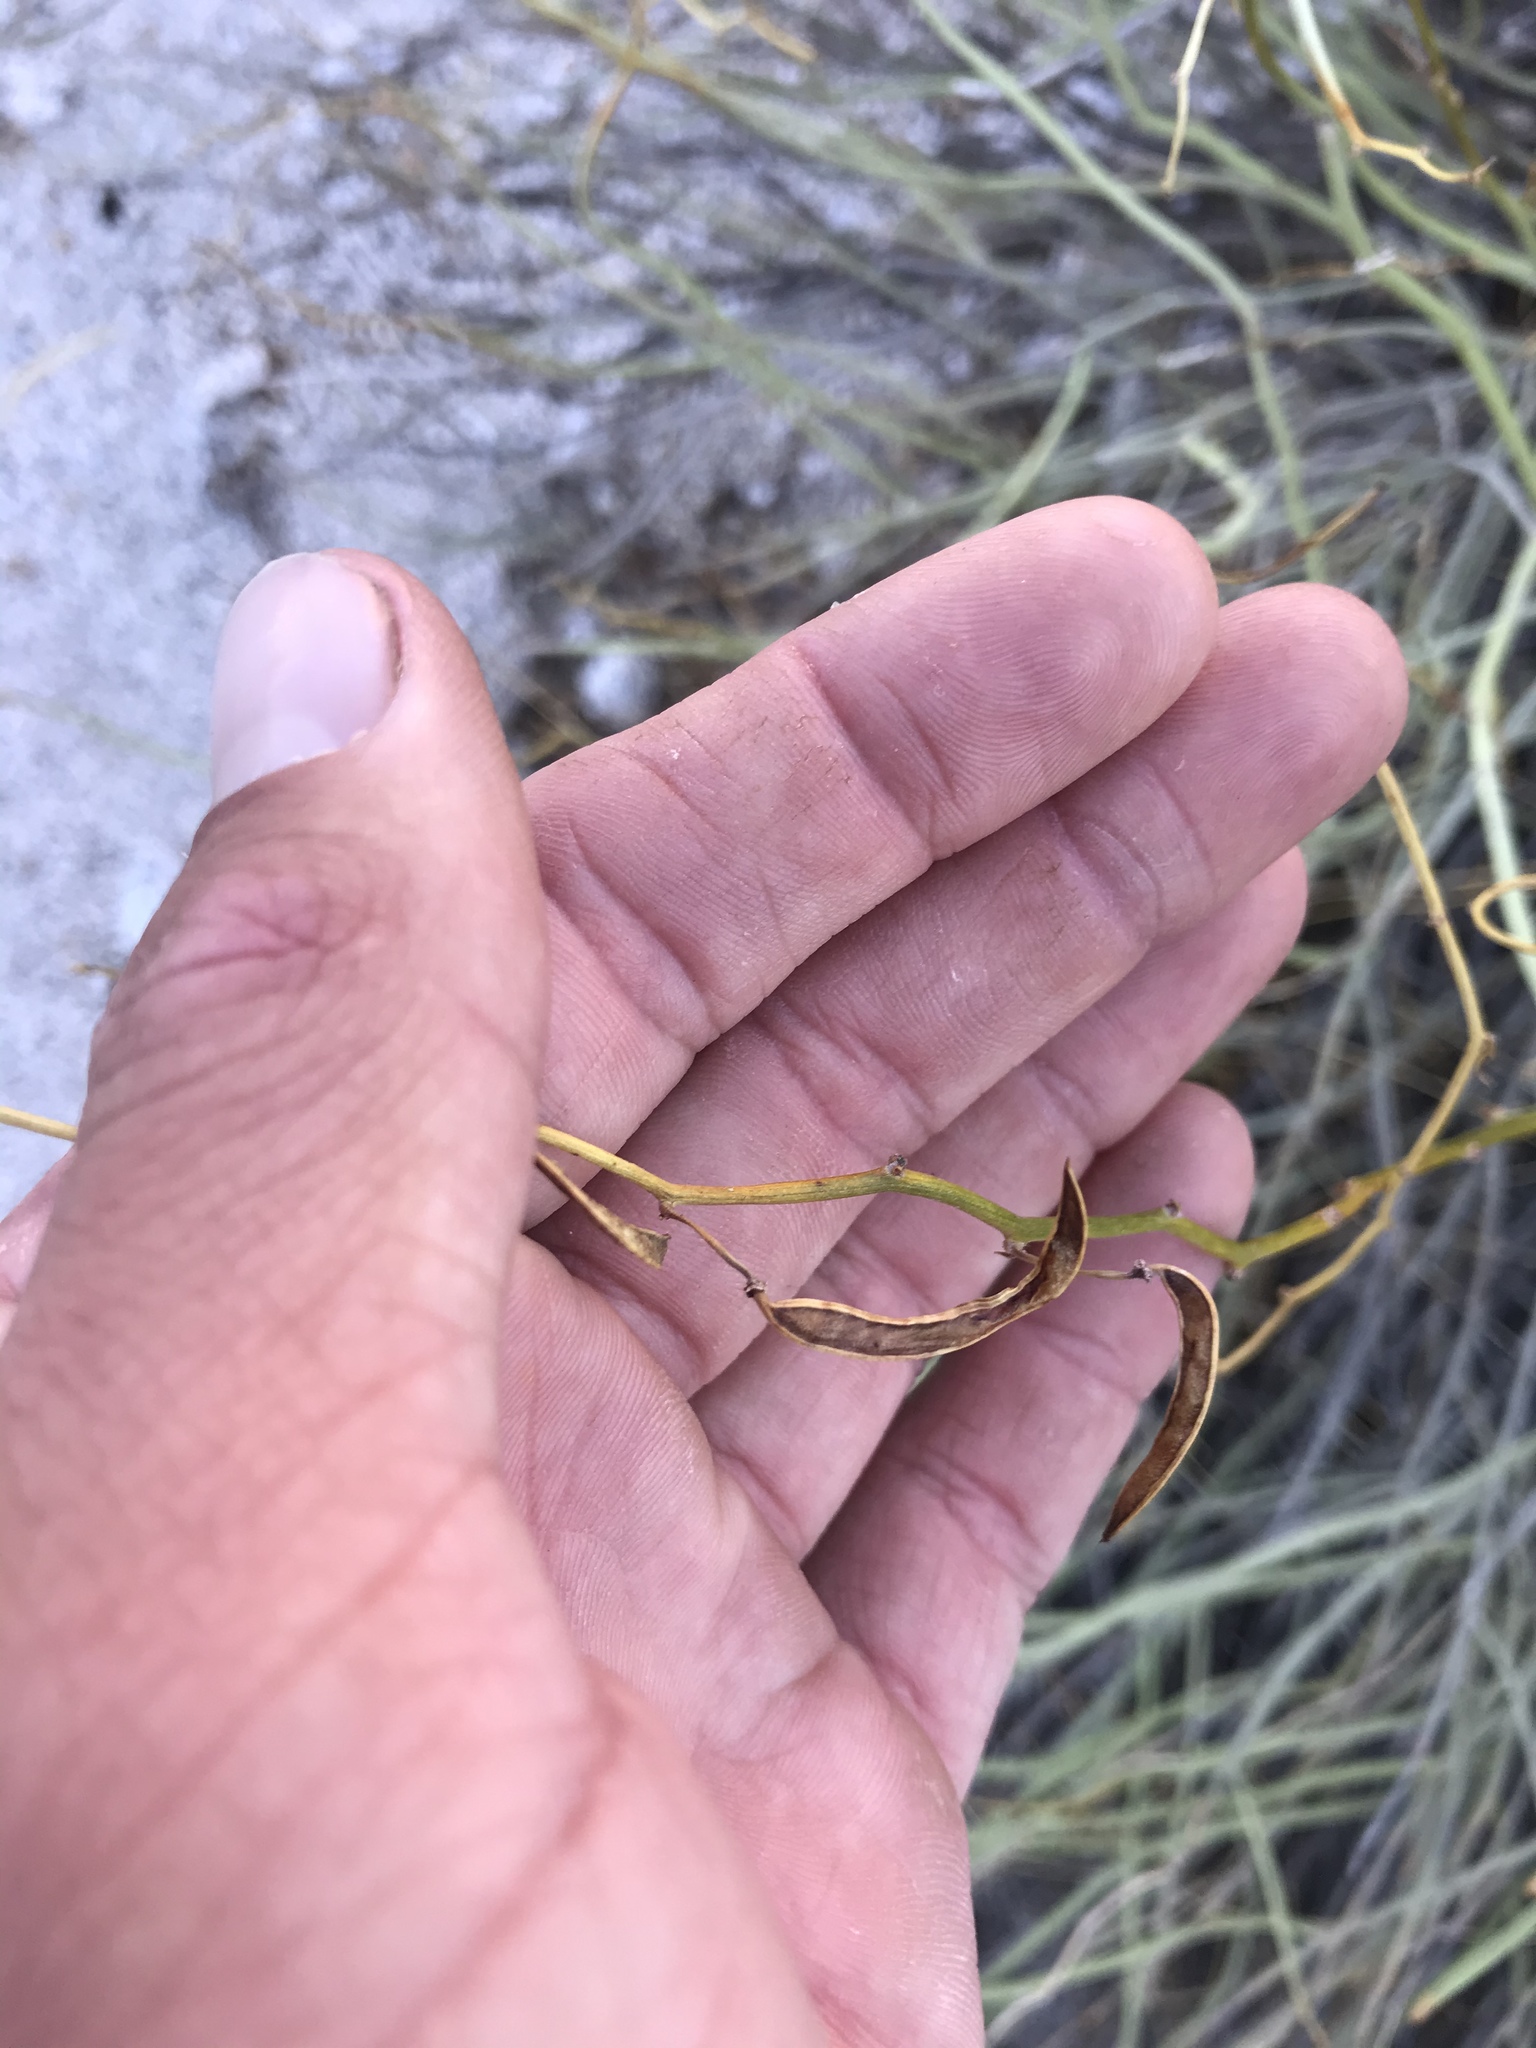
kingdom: Plantae
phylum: Tracheophyta
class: Magnoliopsida
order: Fabales
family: Fabaceae
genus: Senna
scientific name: Senna armata
